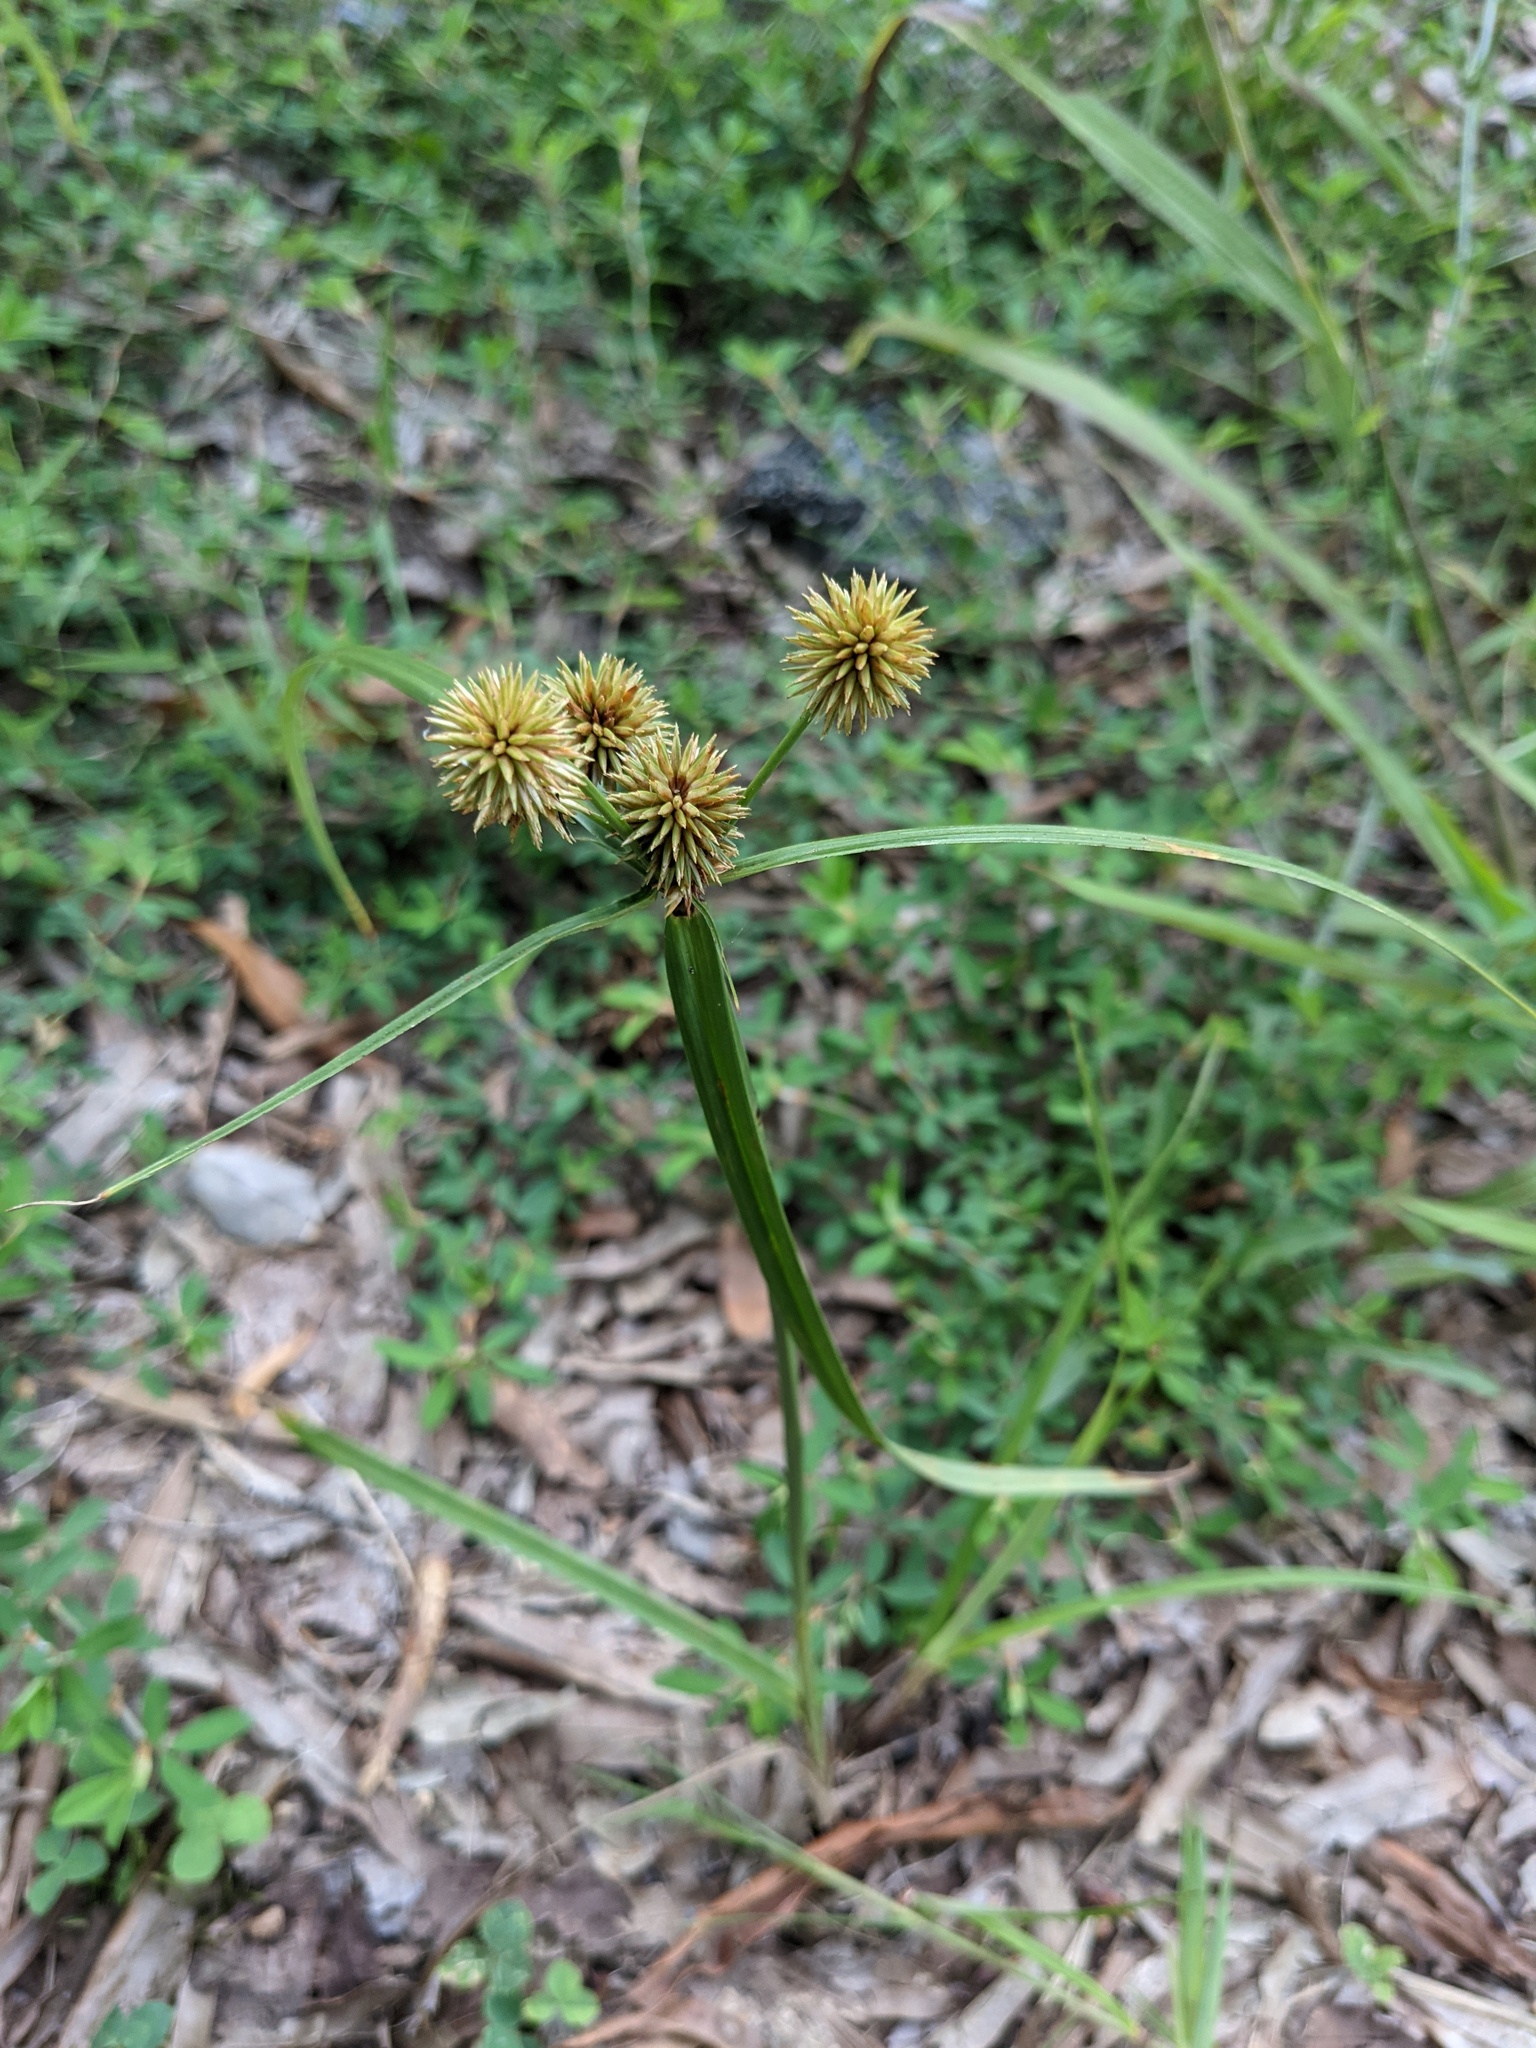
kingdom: Plantae
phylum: Tracheophyta
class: Liliopsida
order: Poales
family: Cyperaceae
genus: Cyperus
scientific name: Cyperus echinatus
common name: Teasel sedge
